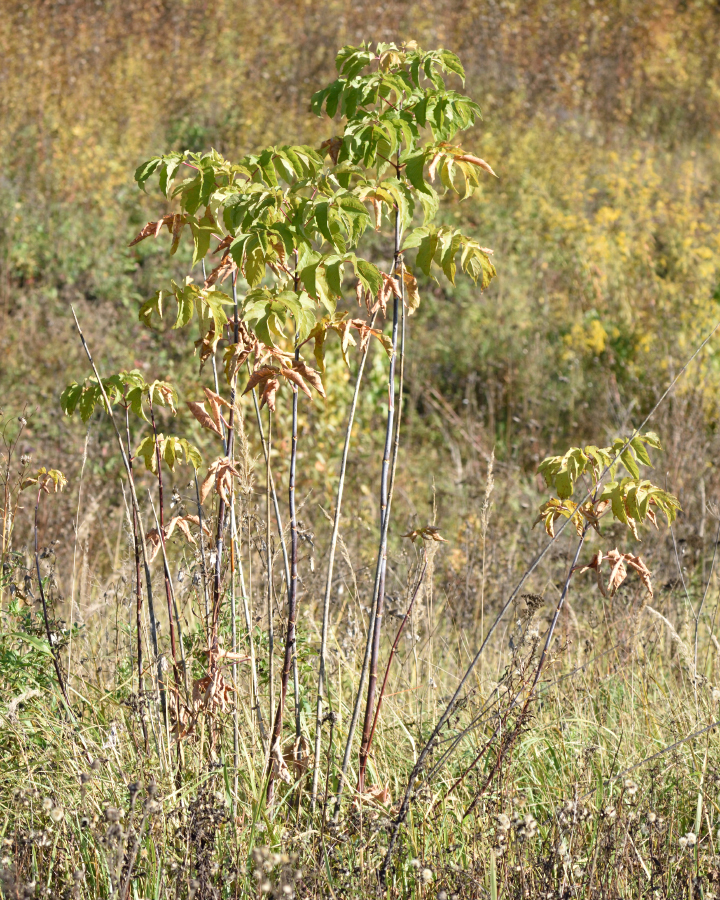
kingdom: Plantae
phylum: Tracheophyta
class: Magnoliopsida
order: Sapindales
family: Sapindaceae
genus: Acer
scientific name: Acer negundo
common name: Ashleaf maple
